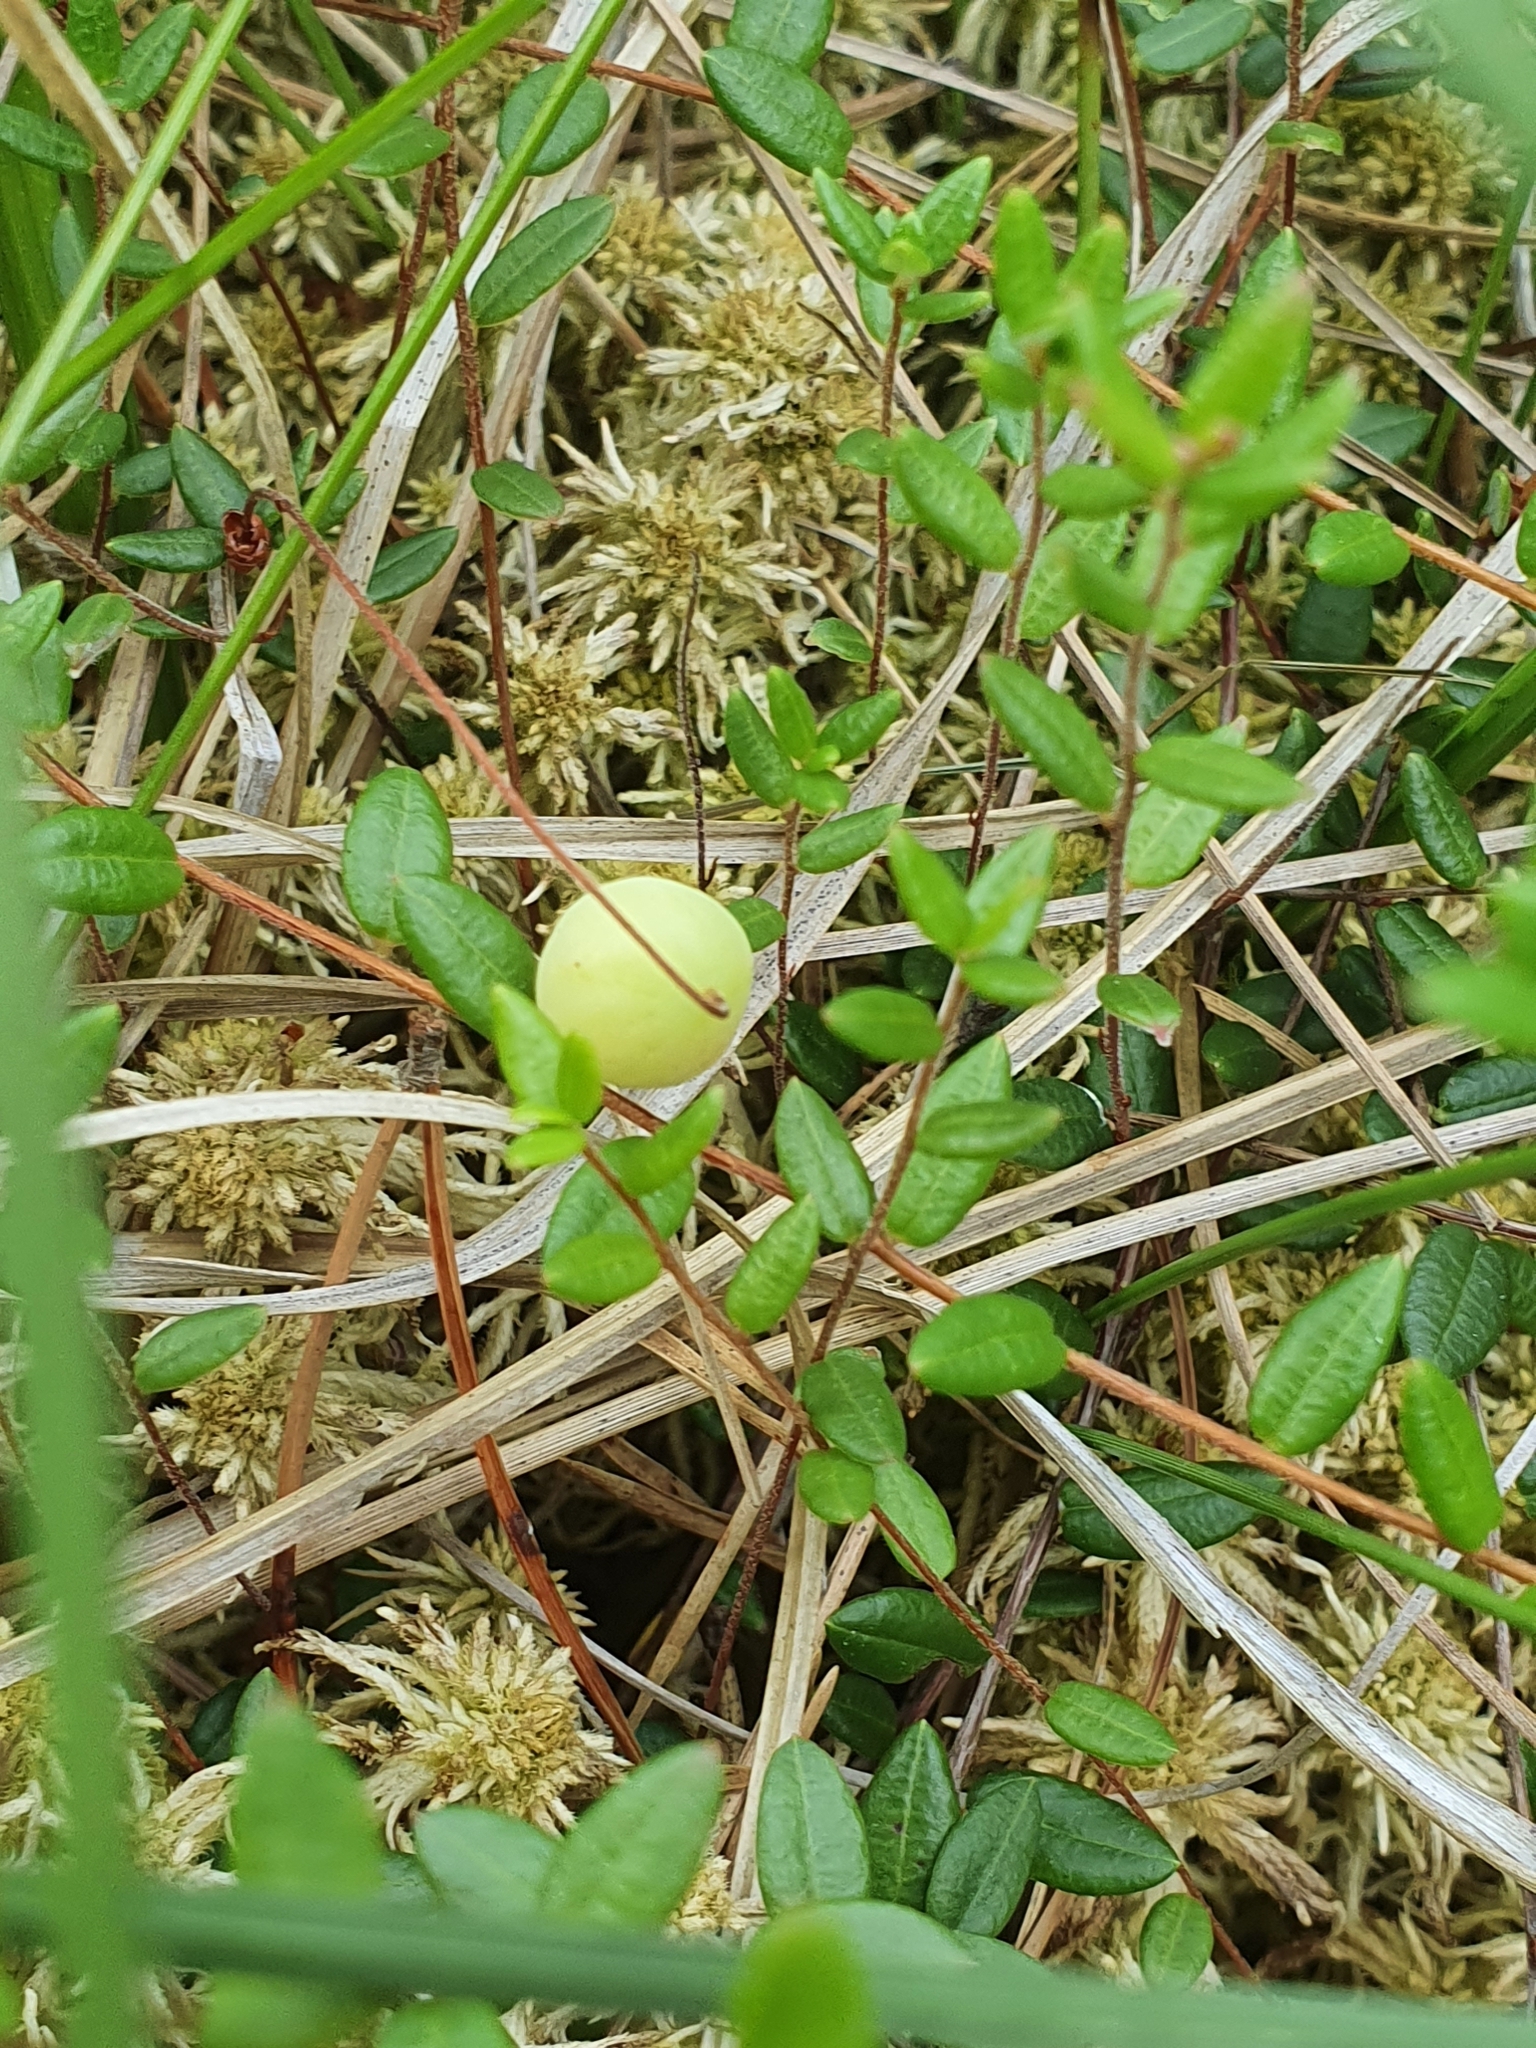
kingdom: Plantae
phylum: Tracheophyta
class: Magnoliopsida
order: Ericales
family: Ericaceae
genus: Vaccinium
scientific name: Vaccinium oxycoccos
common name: Cranberry
